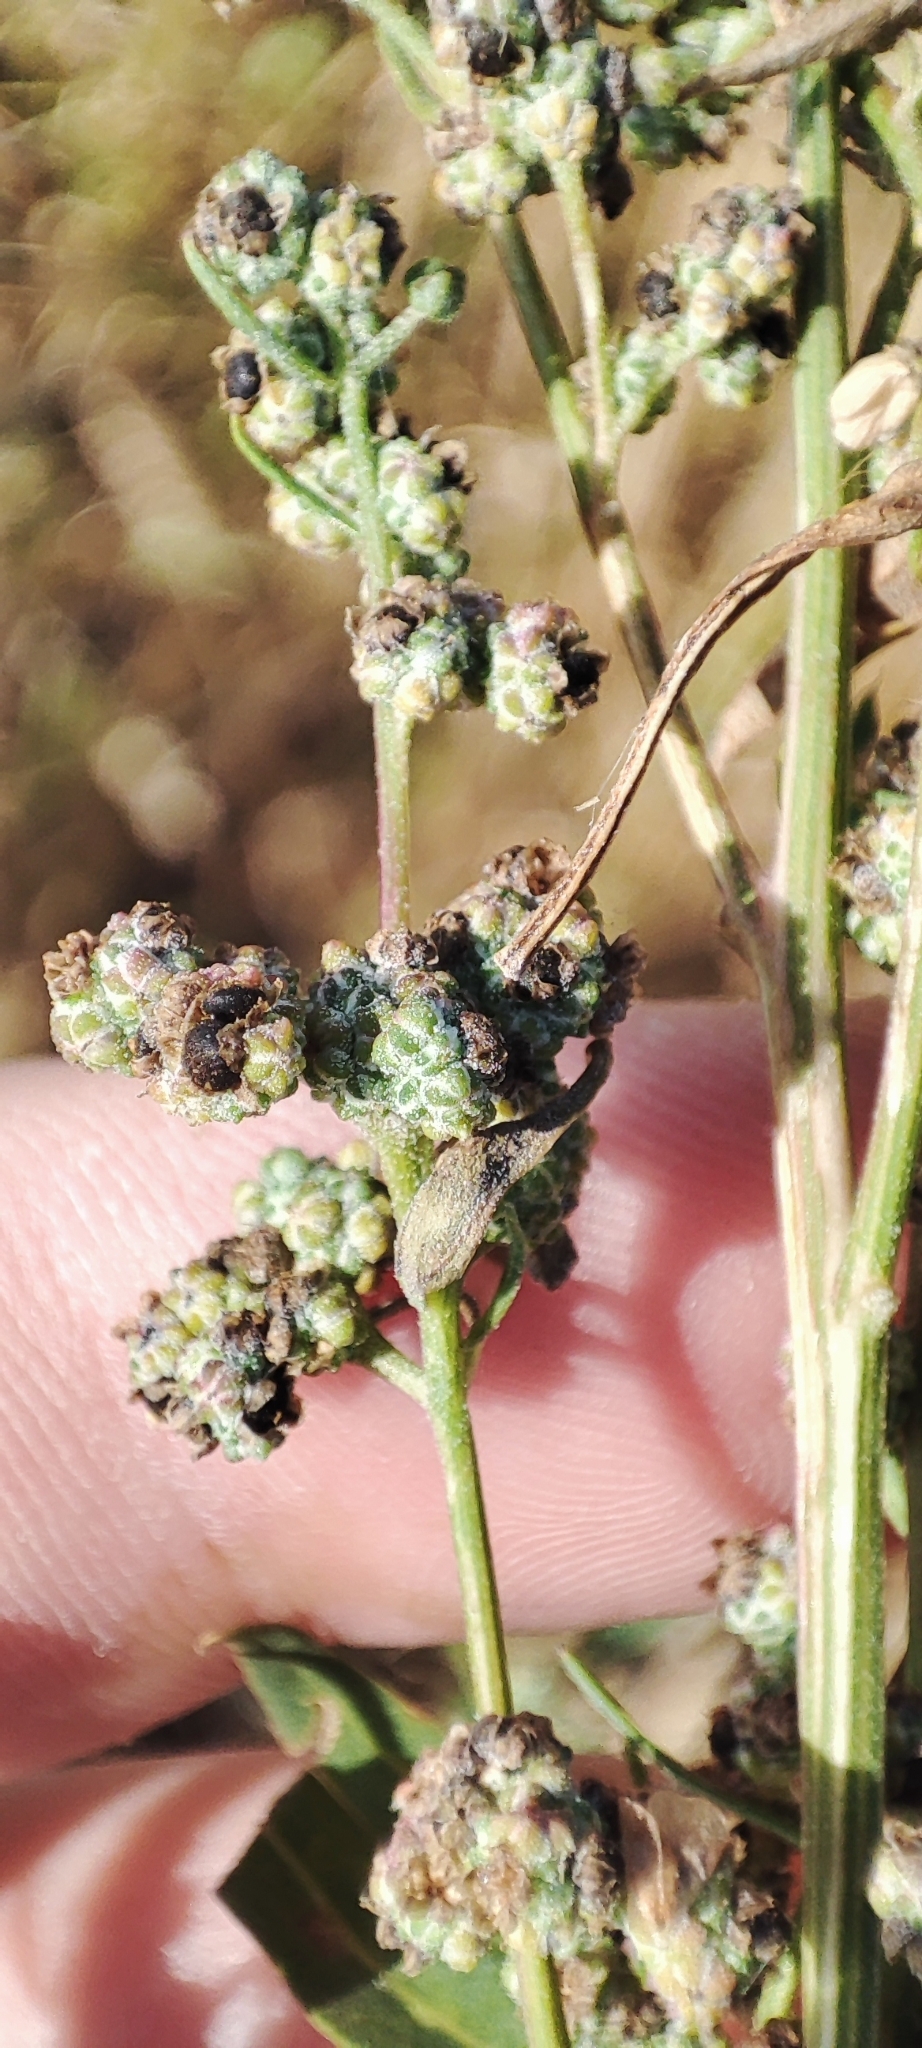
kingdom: Plantae
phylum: Tracheophyta
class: Magnoliopsida
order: Caryophyllales
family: Amaranthaceae
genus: Chenopodium
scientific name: Chenopodium album
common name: Fat-hen
